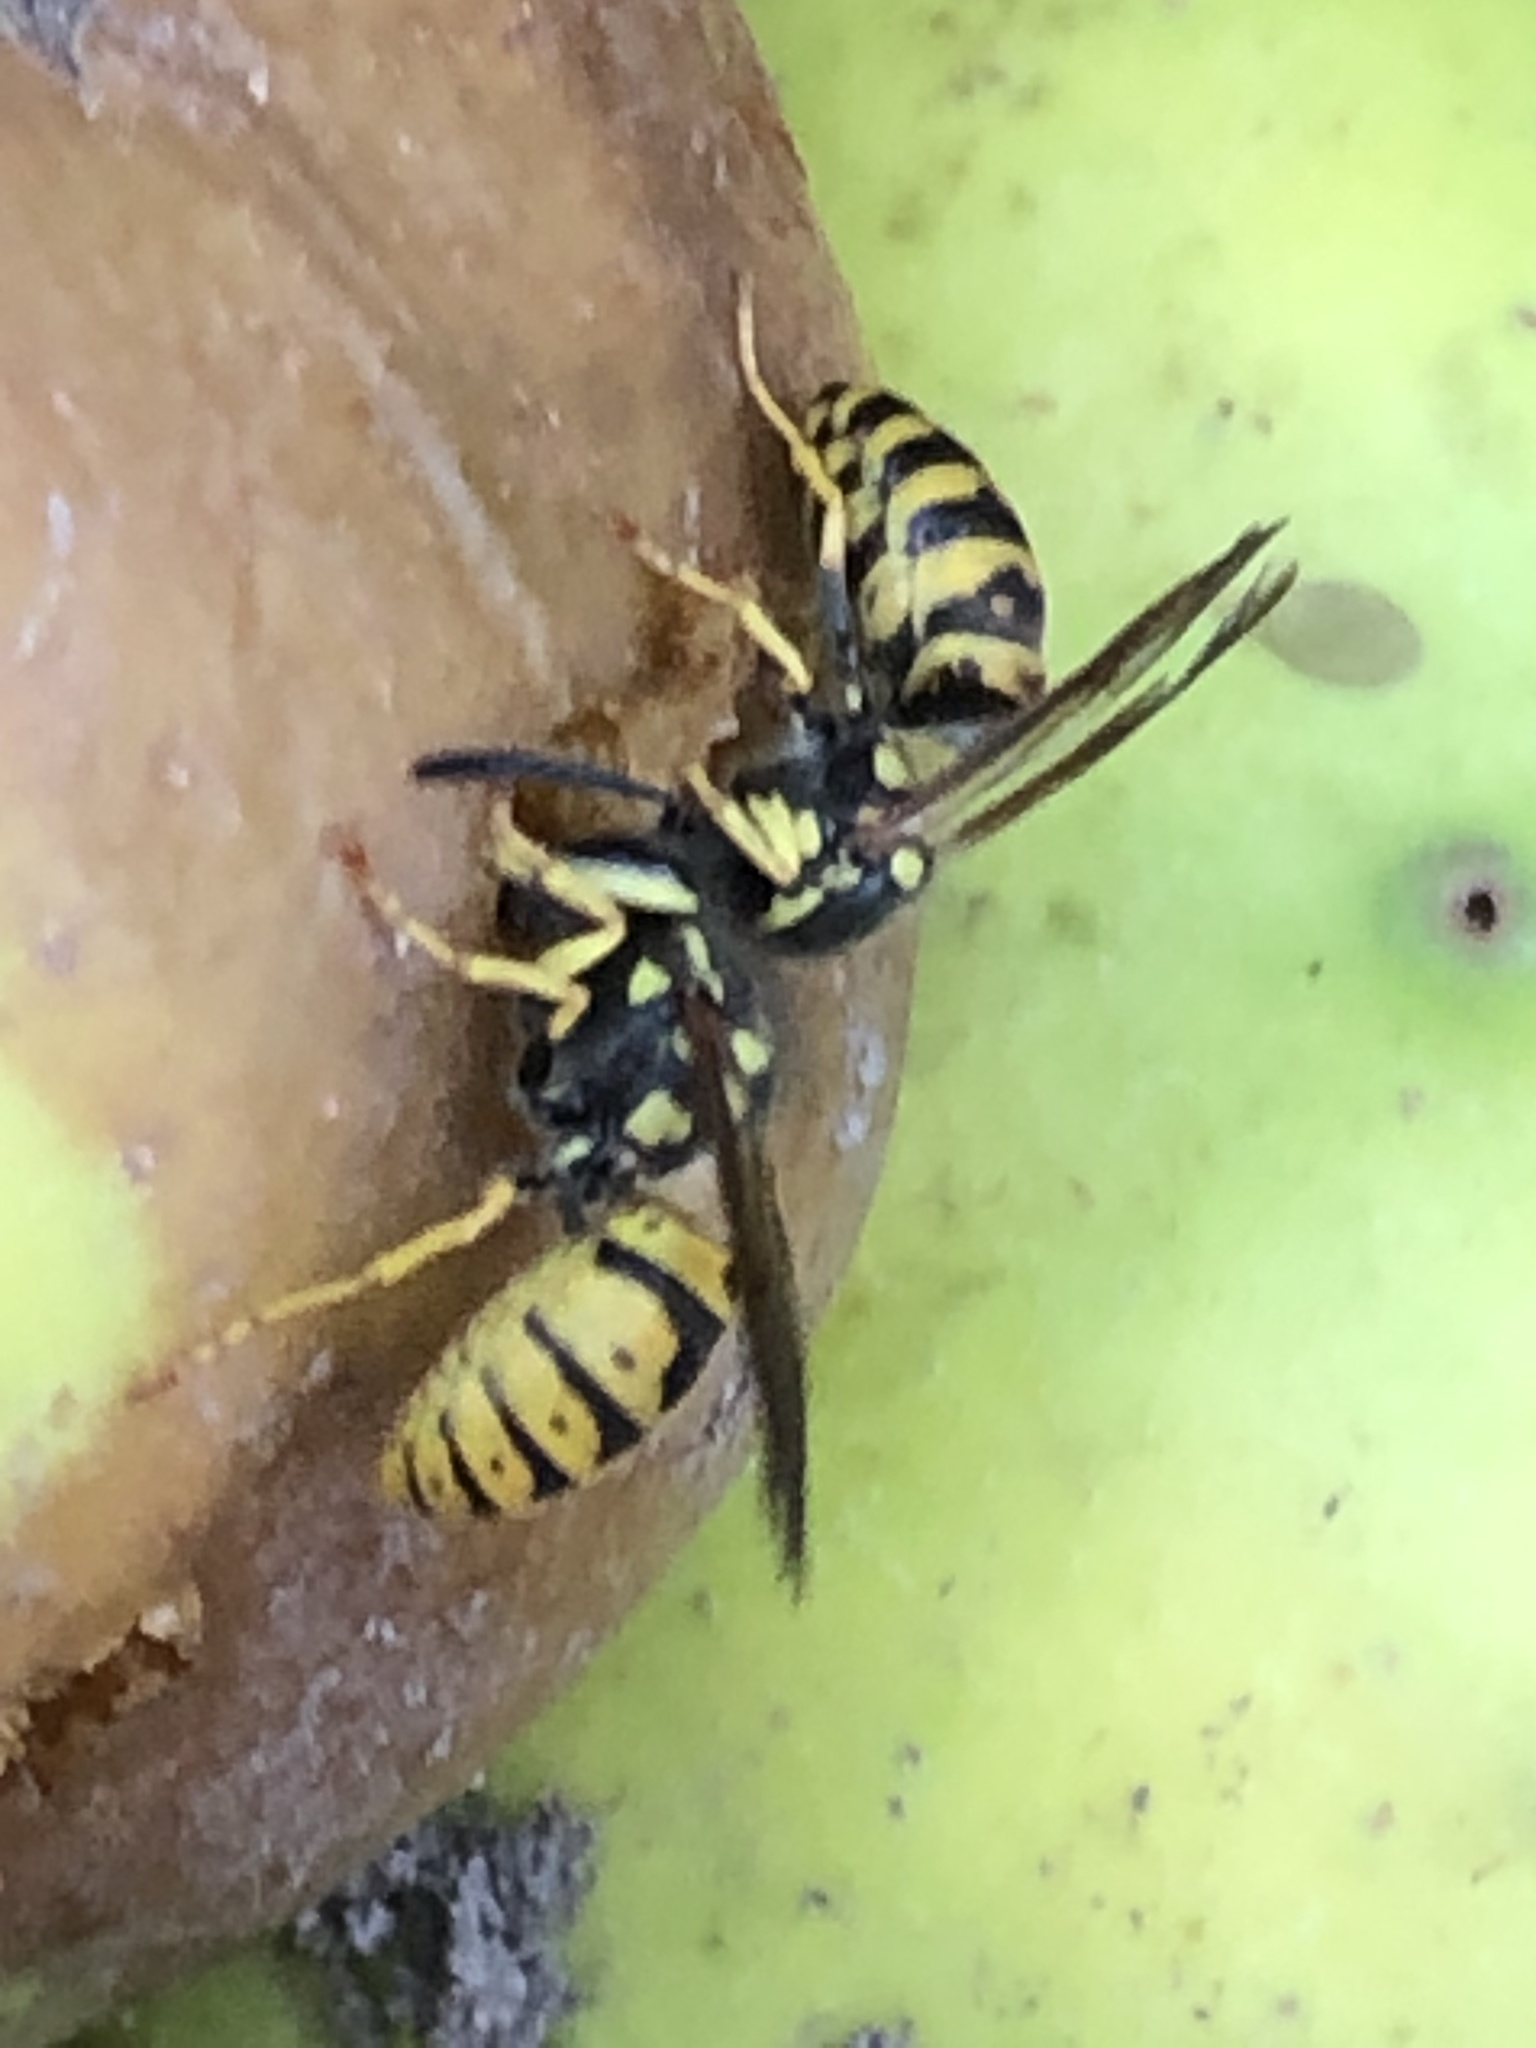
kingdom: Animalia
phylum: Arthropoda
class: Insecta
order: Hymenoptera
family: Vespidae
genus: Vespula
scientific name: Vespula germanica
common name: German wasp
